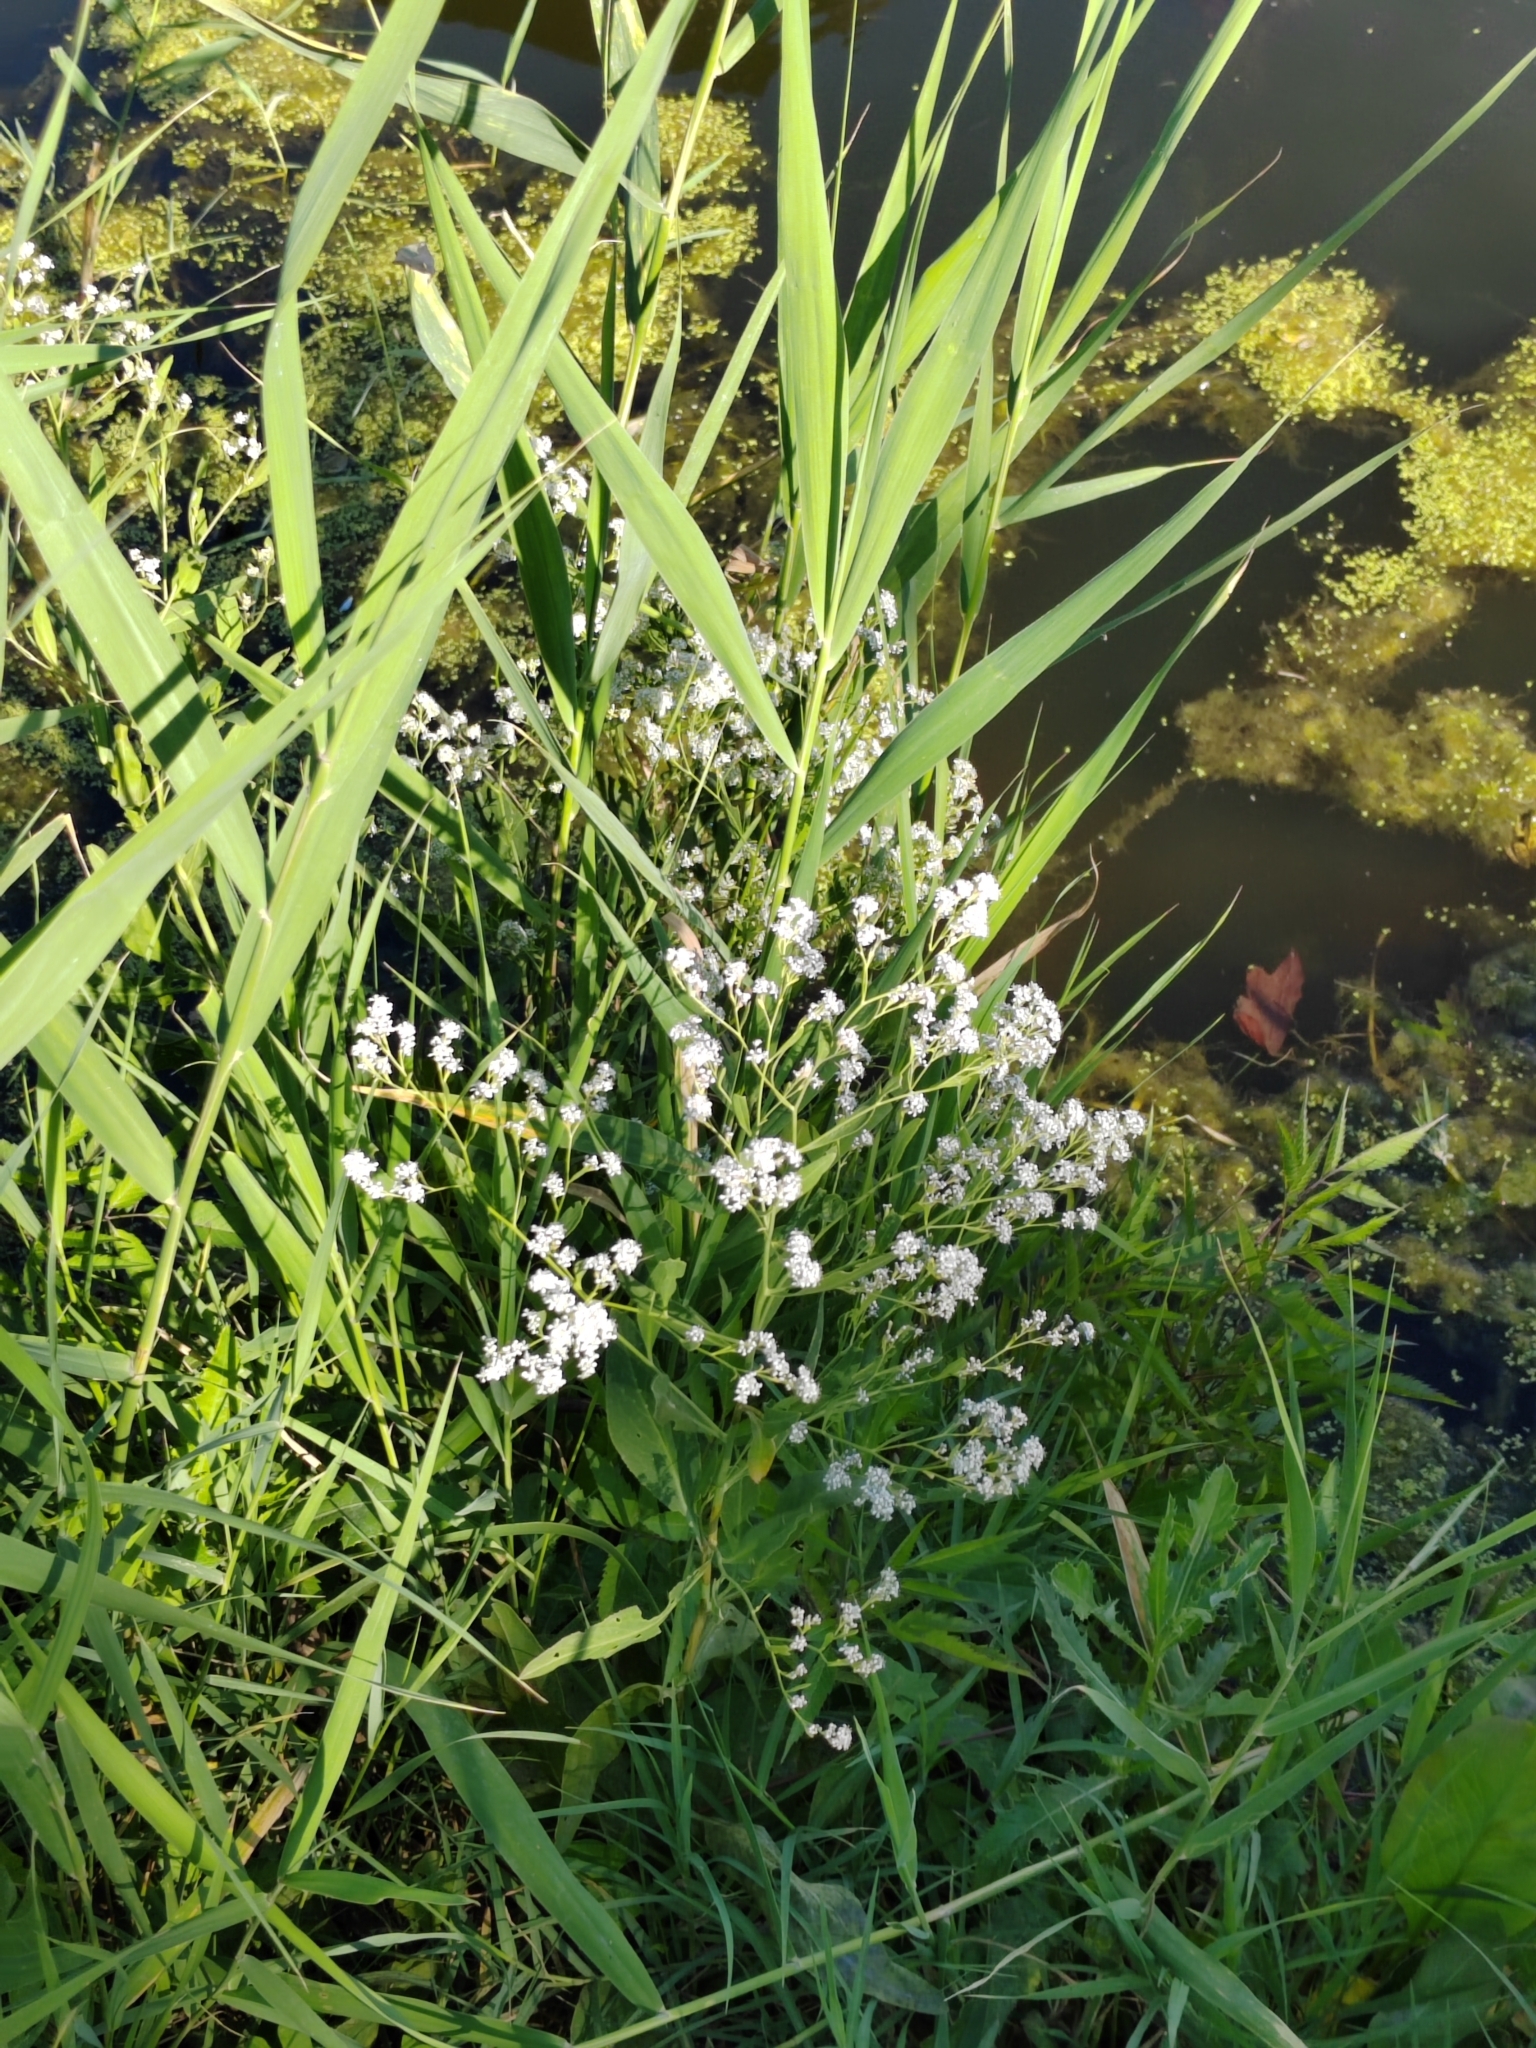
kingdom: Plantae
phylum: Tracheophyta
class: Magnoliopsida
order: Brassicales
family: Brassicaceae
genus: Lepidium
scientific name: Lepidium latifolium
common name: Dittander
